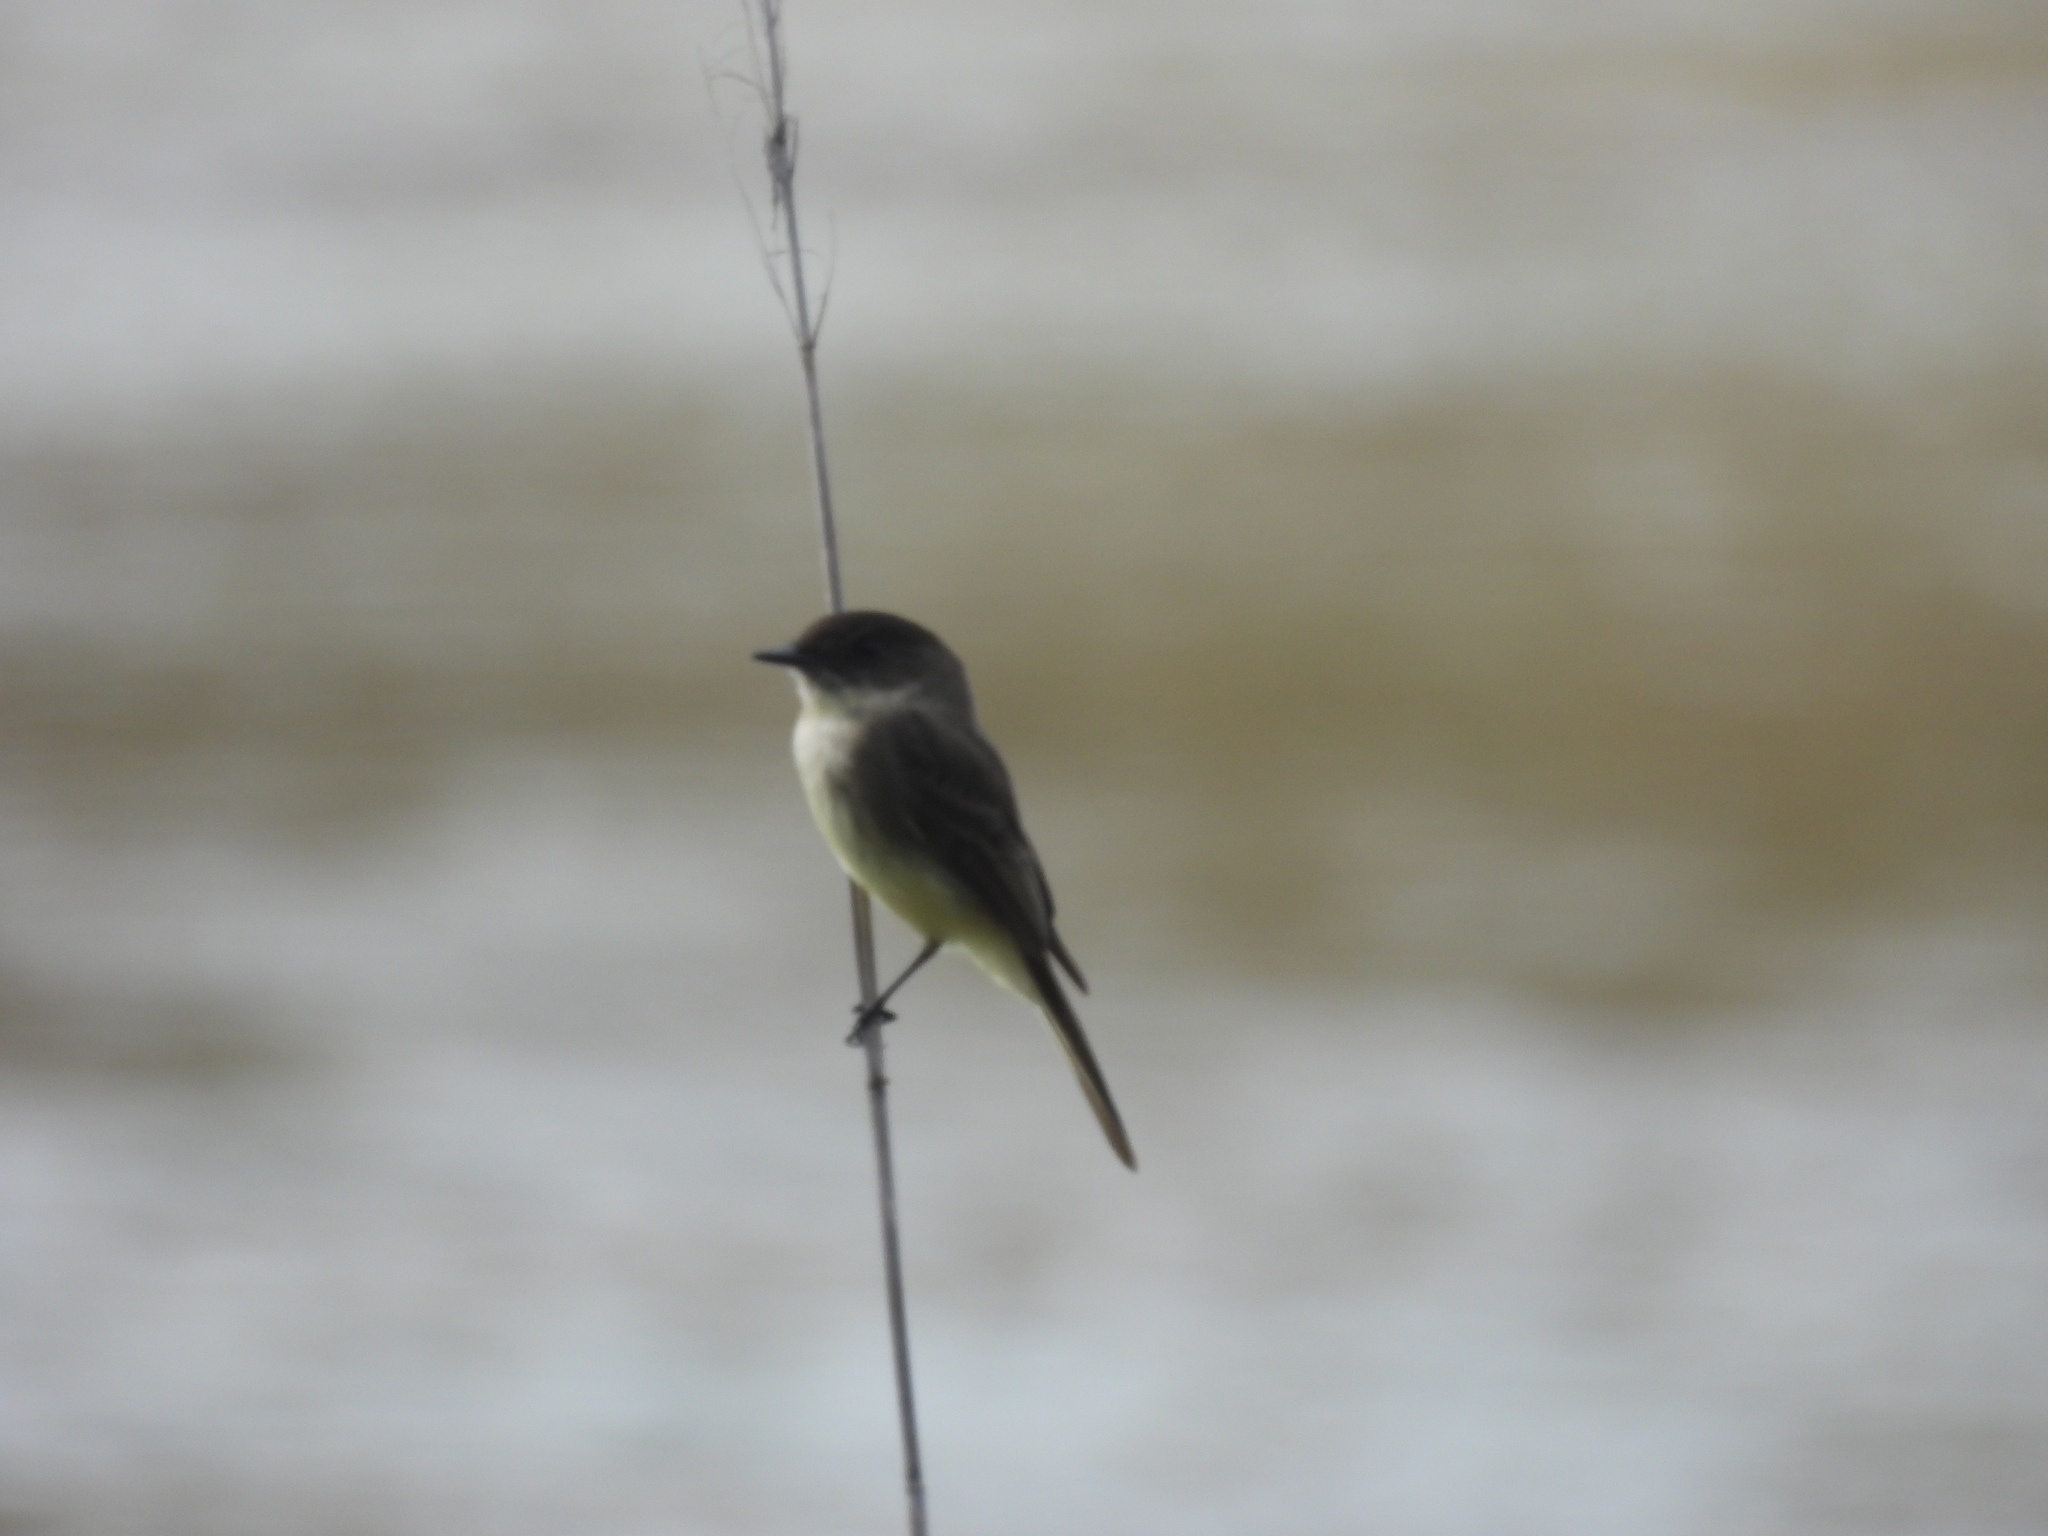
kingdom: Animalia
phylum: Chordata
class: Aves
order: Passeriformes
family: Tyrannidae
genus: Sayornis
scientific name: Sayornis phoebe
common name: Eastern phoebe
